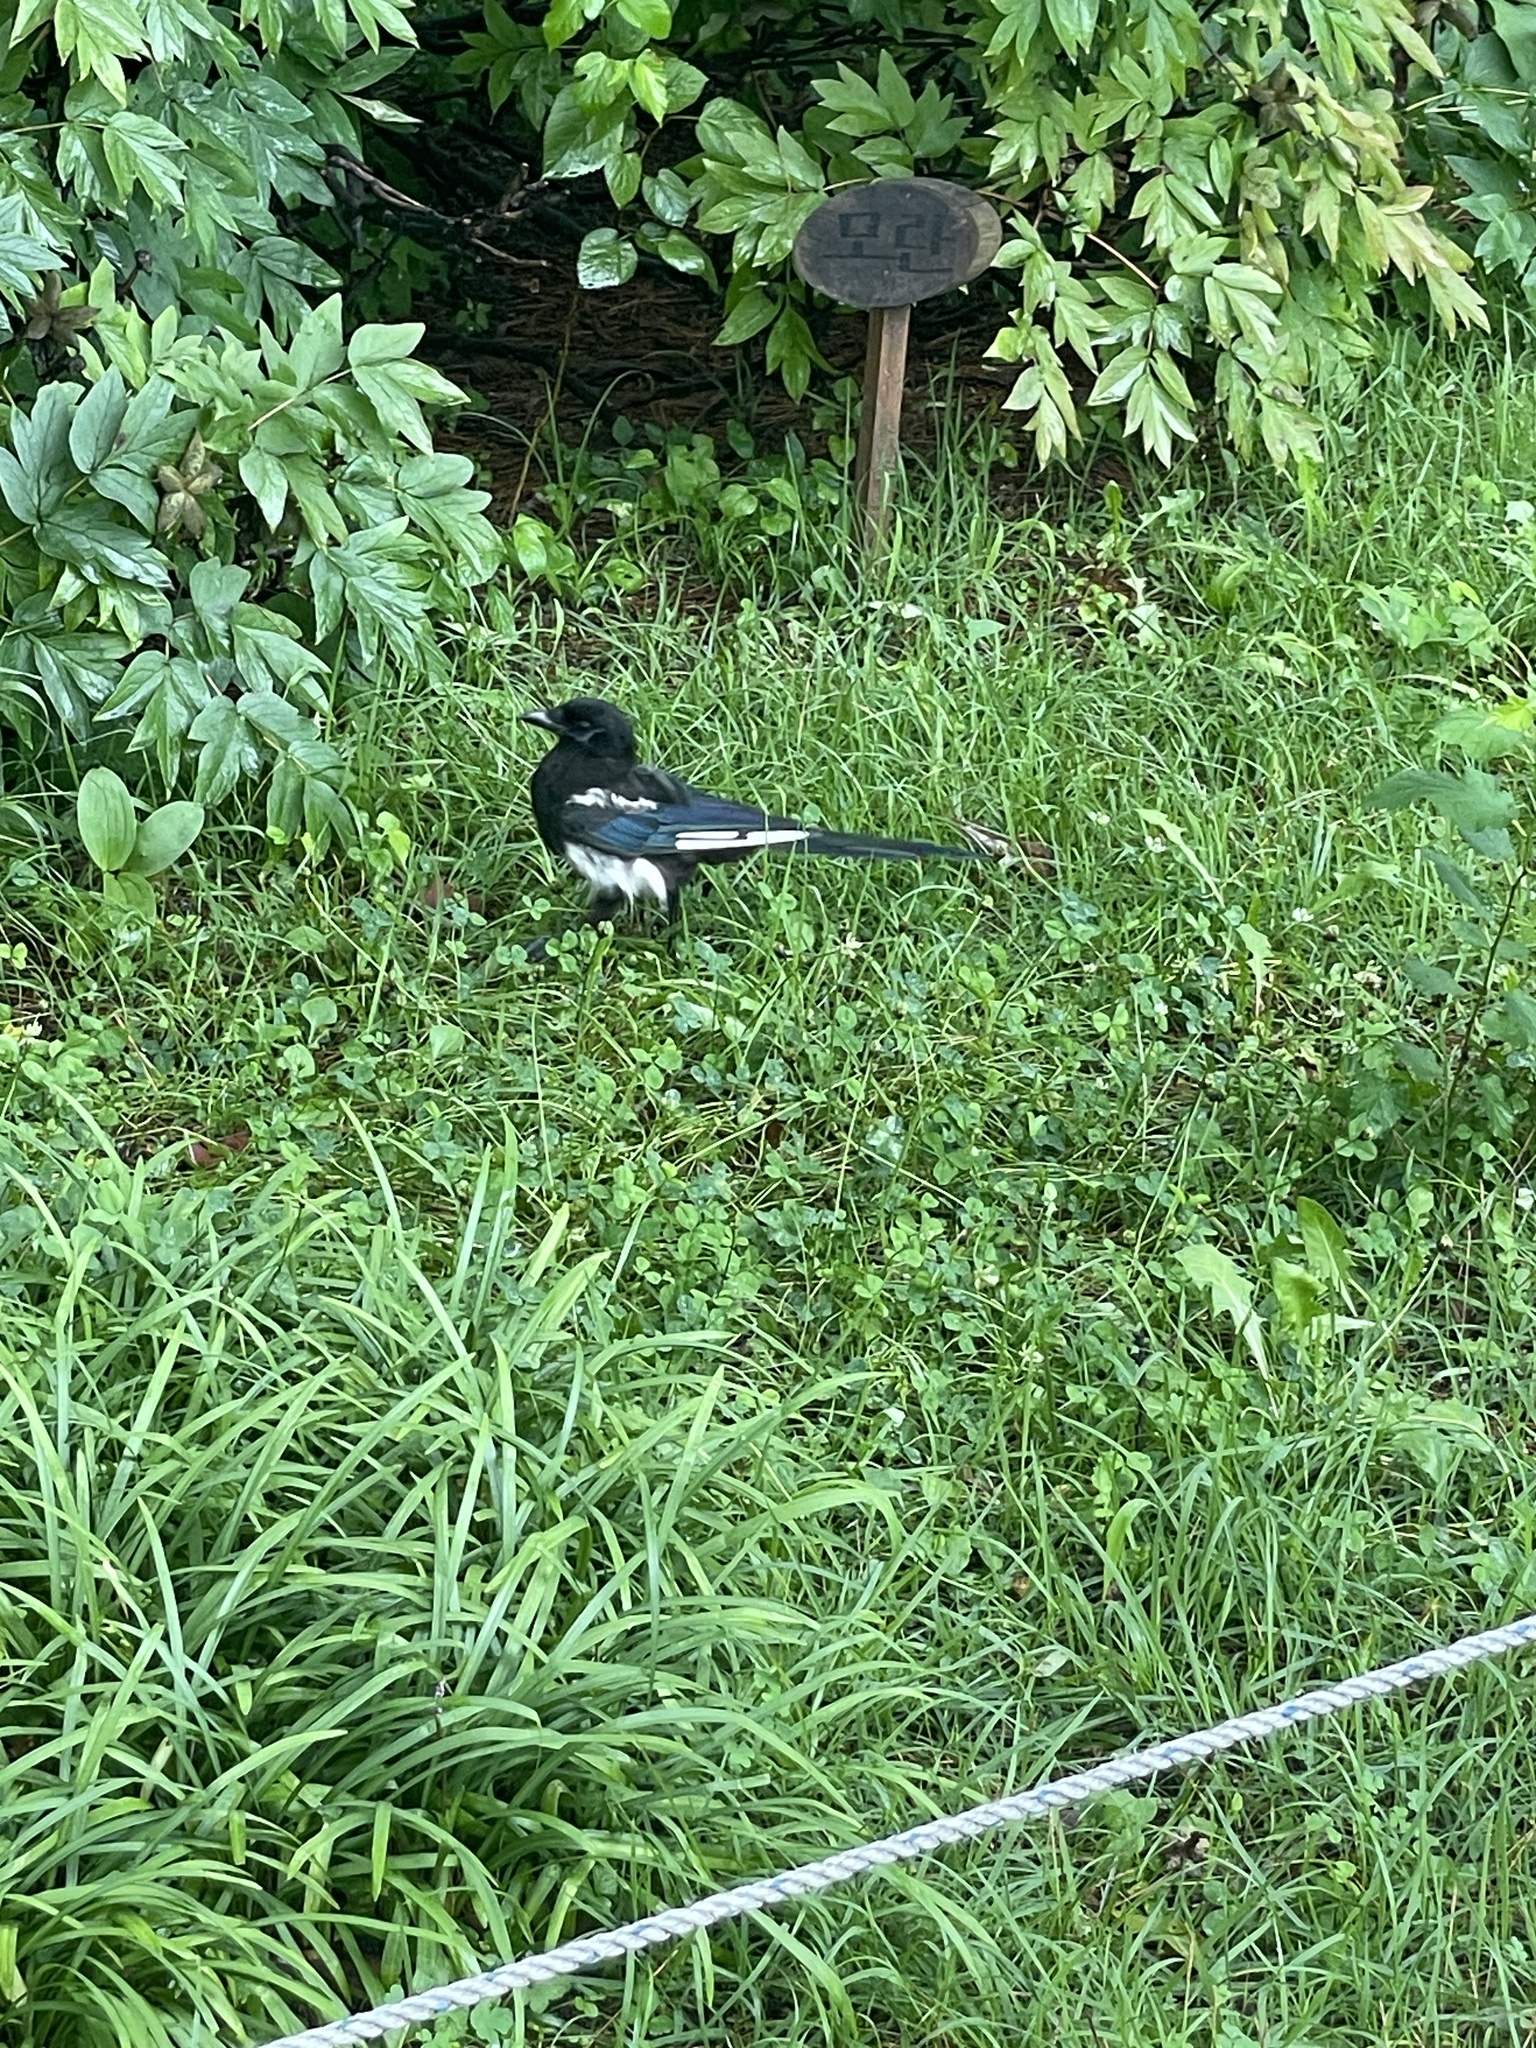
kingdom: Animalia
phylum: Chordata
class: Aves
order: Passeriformes
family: Corvidae
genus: Pica
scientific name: Pica serica
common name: Oriental magpie
